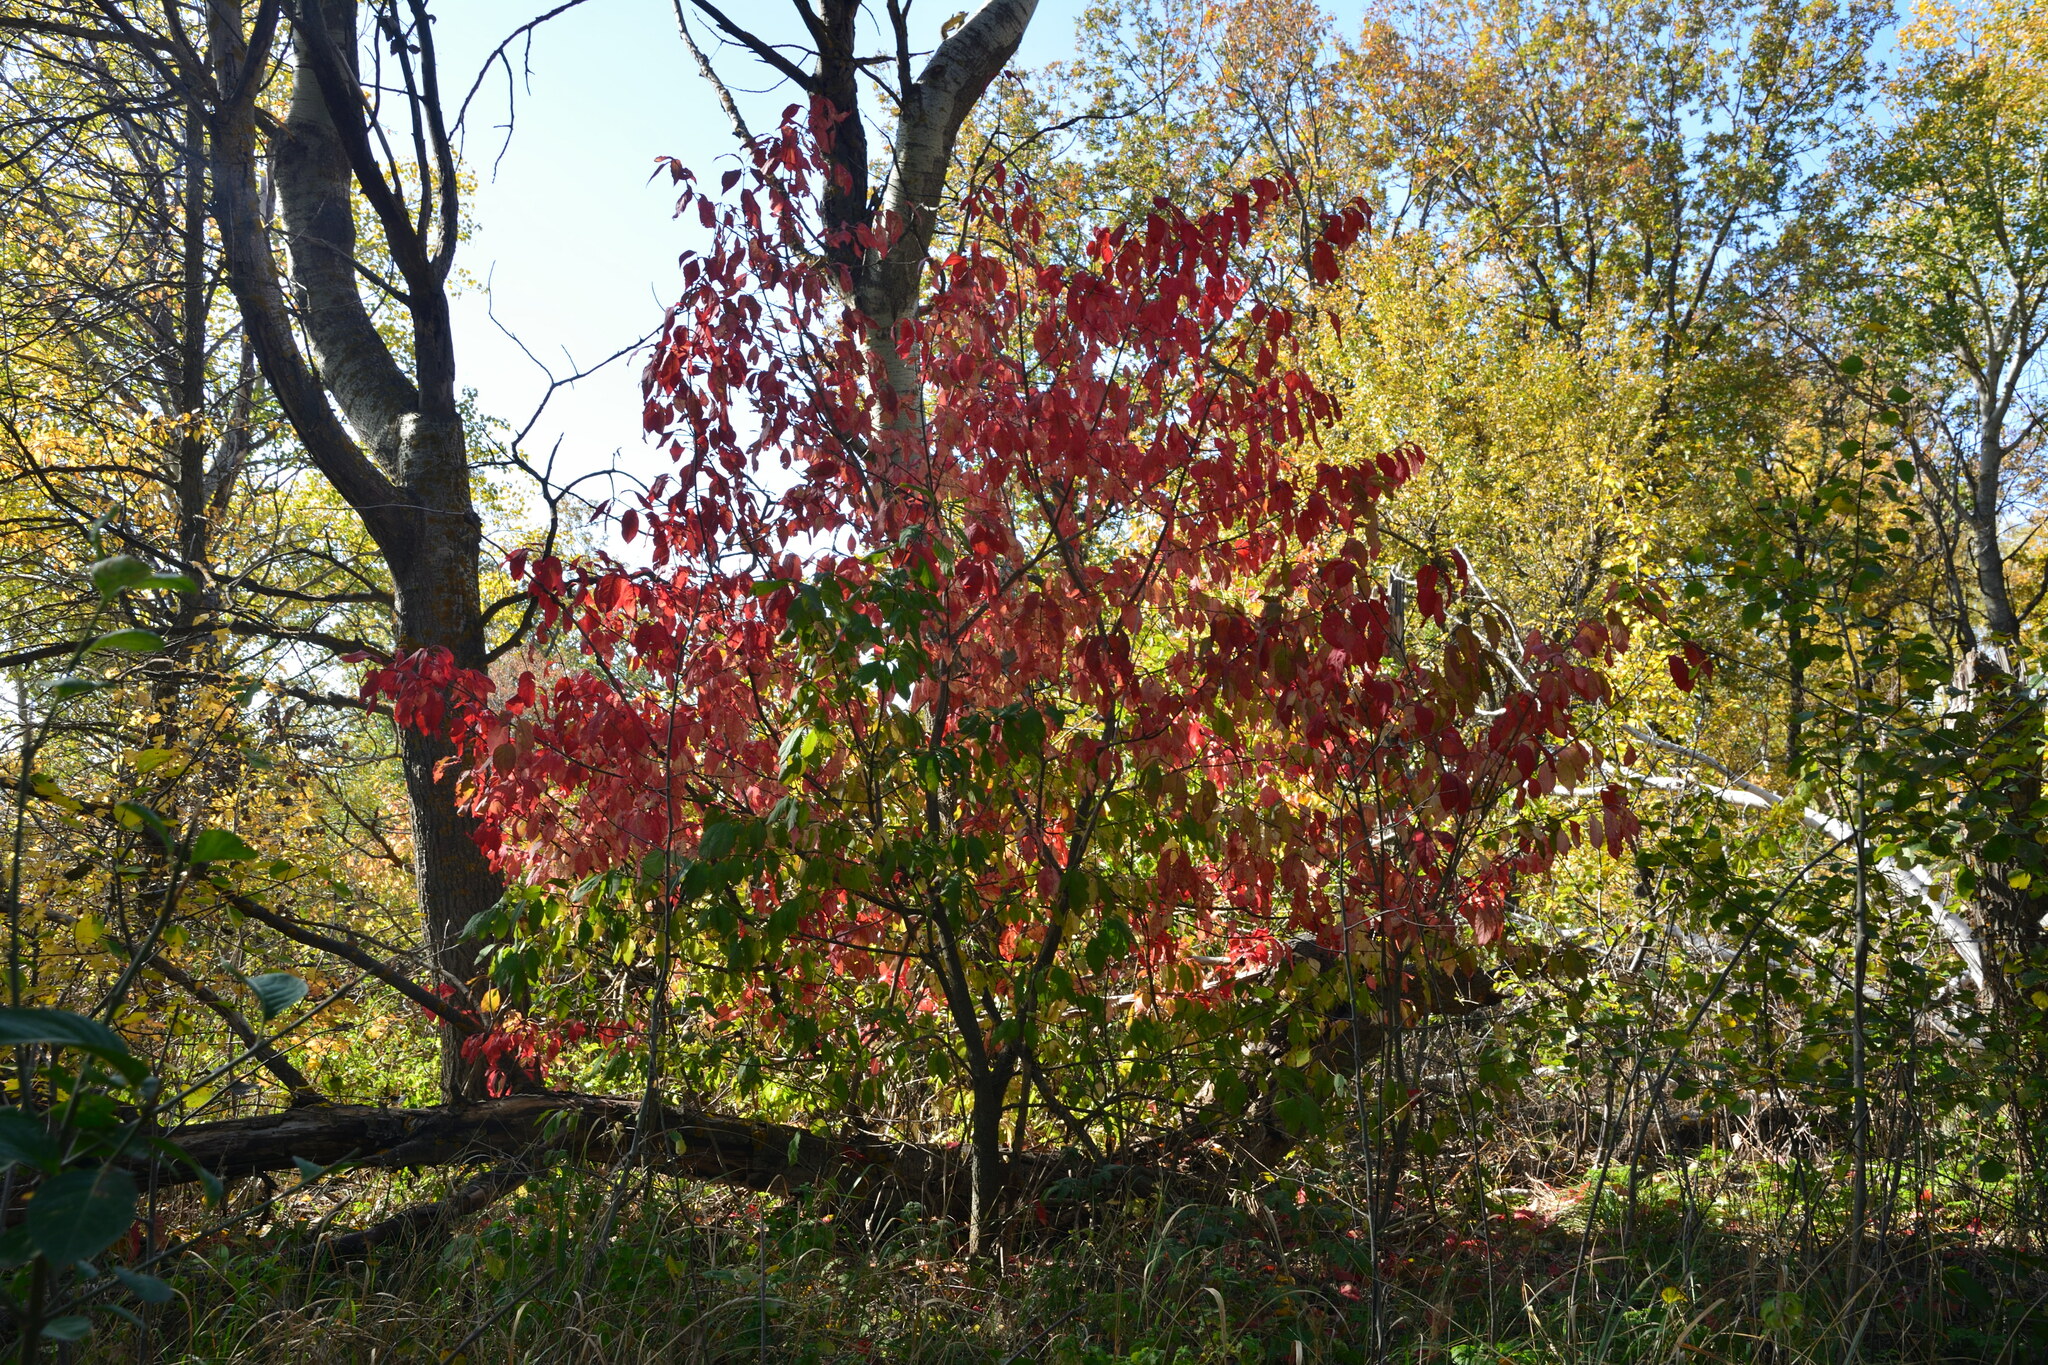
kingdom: Plantae
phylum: Tracheophyta
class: Magnoliopsida
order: Celastrales
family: Celastraceae
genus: Euonymus
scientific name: Euonymus verrucosus
